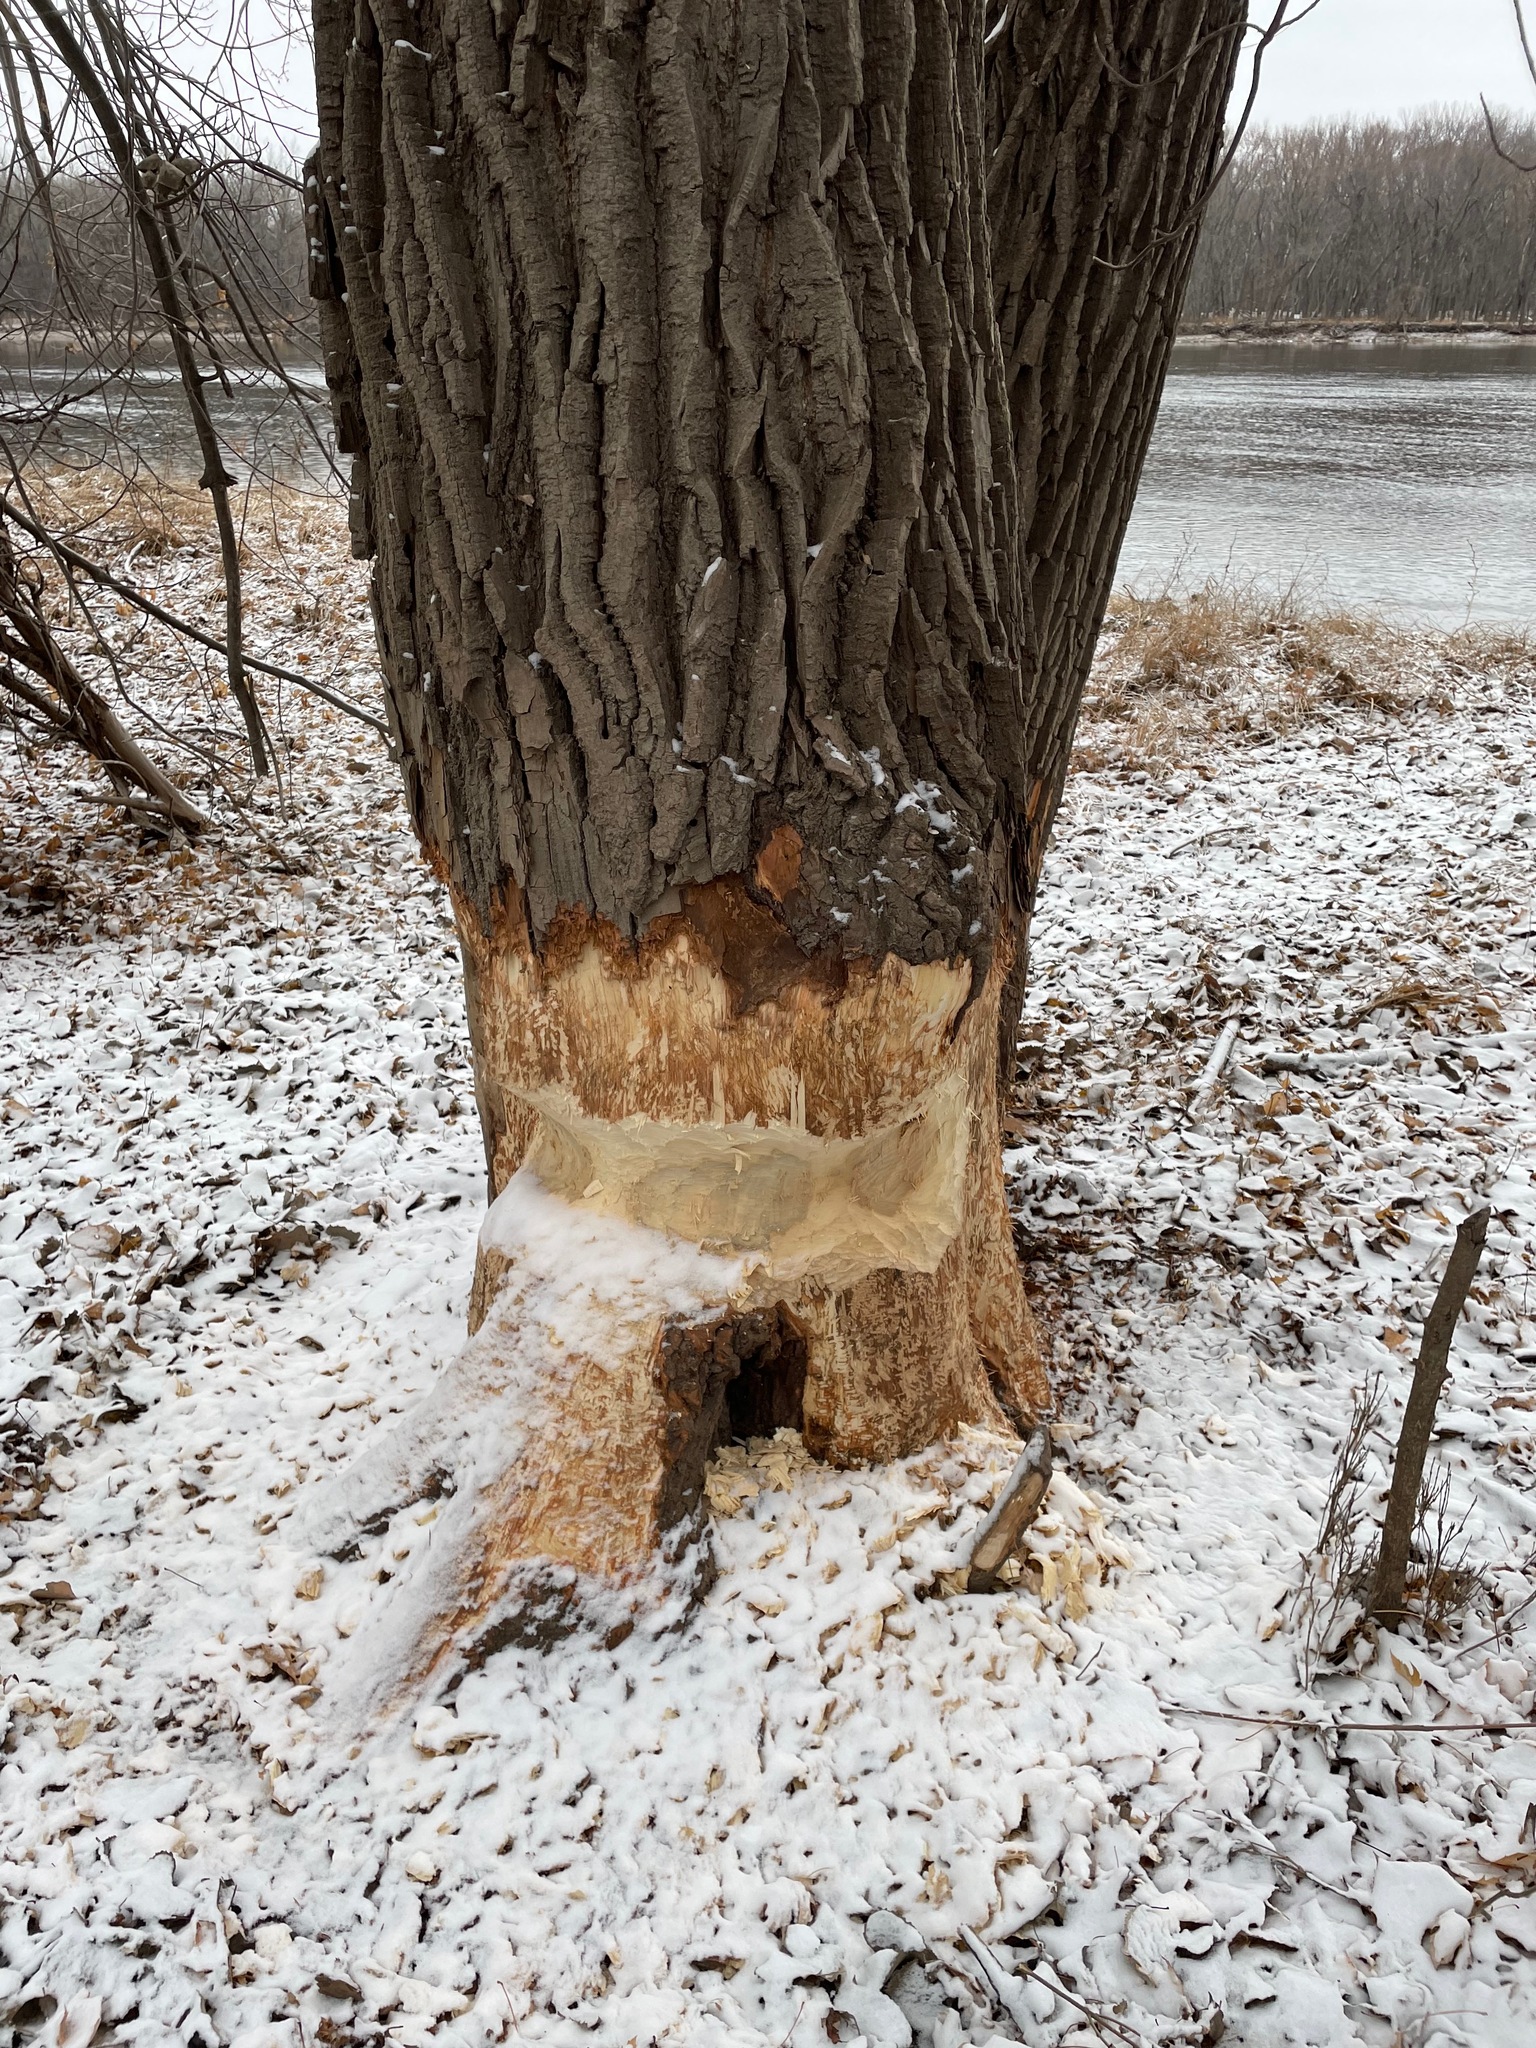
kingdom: Animalia
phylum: Chordata
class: Mammalia
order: Rodentia
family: Castoridae
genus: Castor
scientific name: Castor canadensis
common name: American beaver
